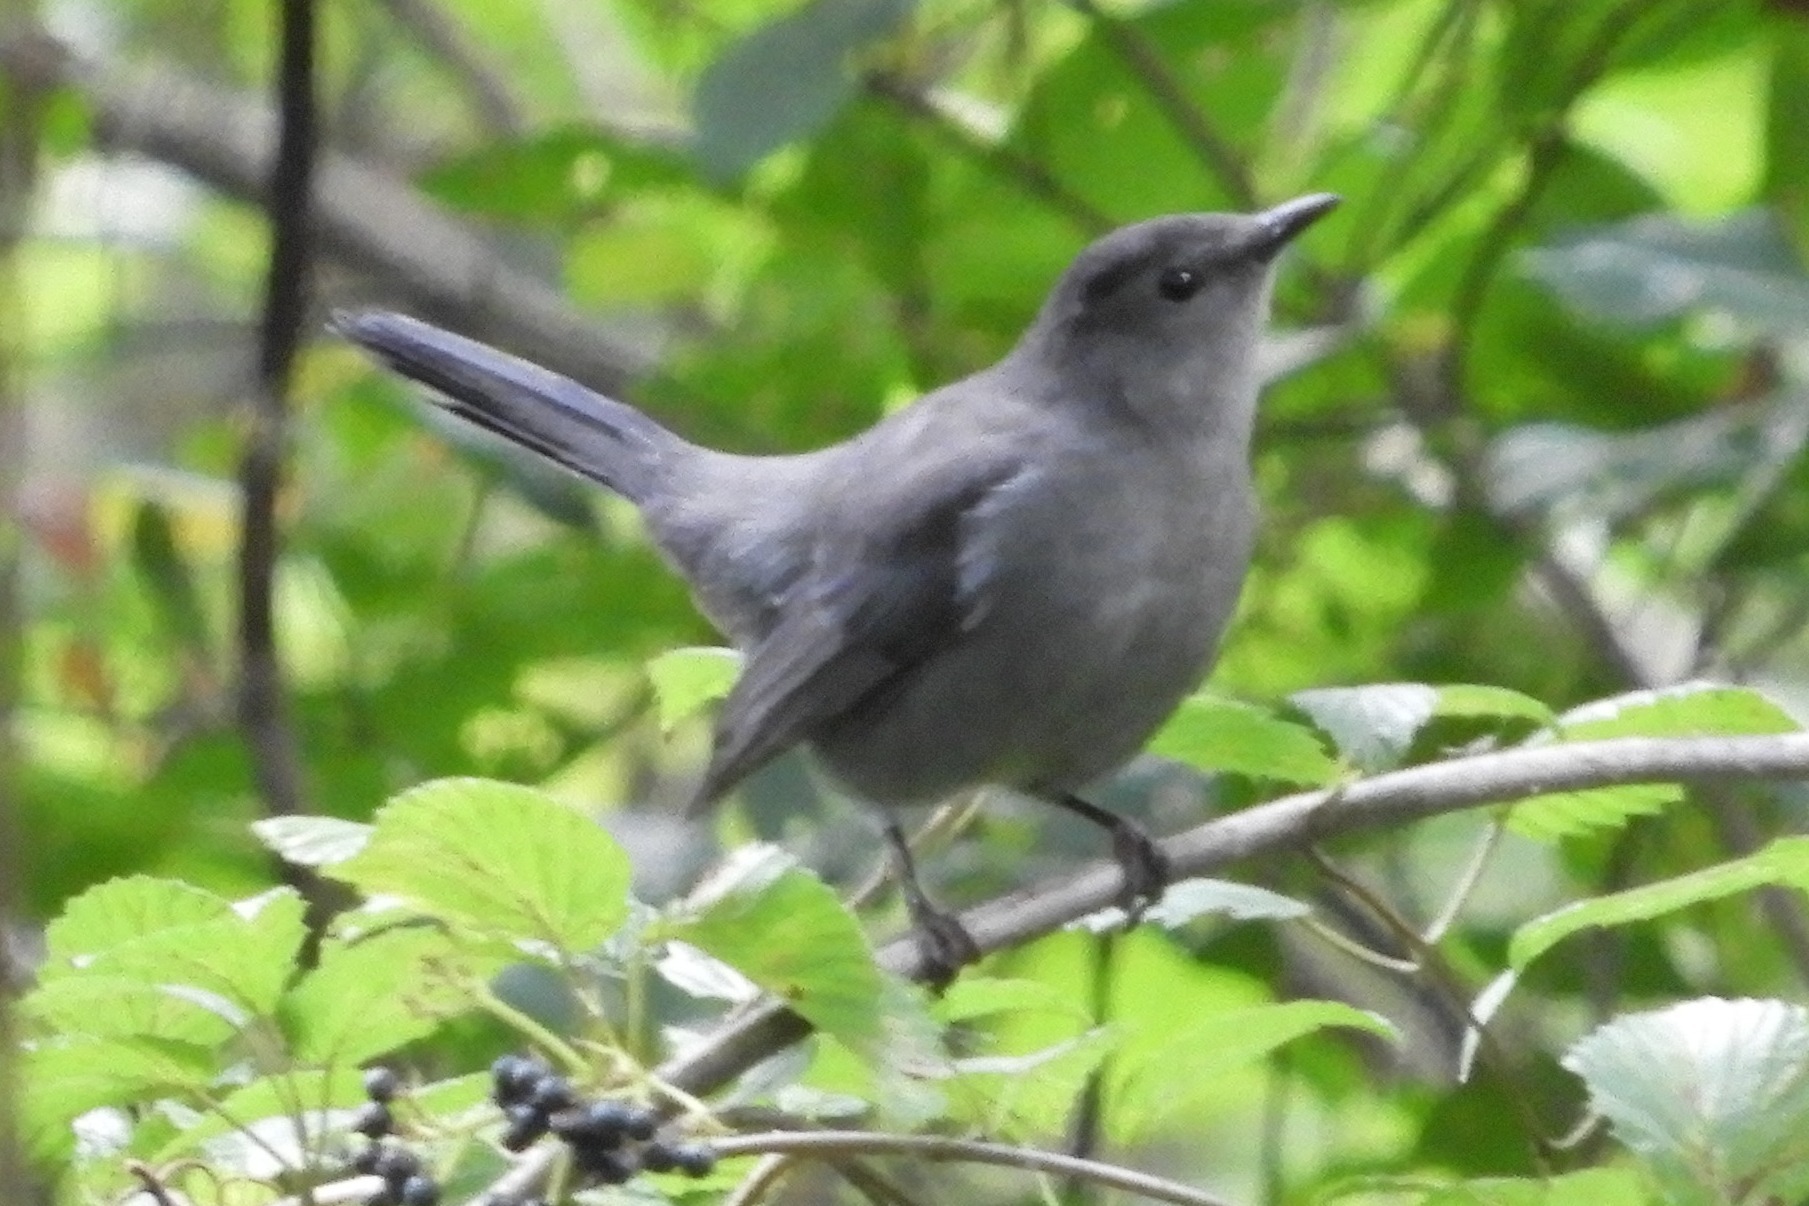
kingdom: Animalia
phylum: Chordata
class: Aves
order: Passeriformes
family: Mimidae
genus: Dumetella
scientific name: Dumetella carolinensis
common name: Gray catbird
